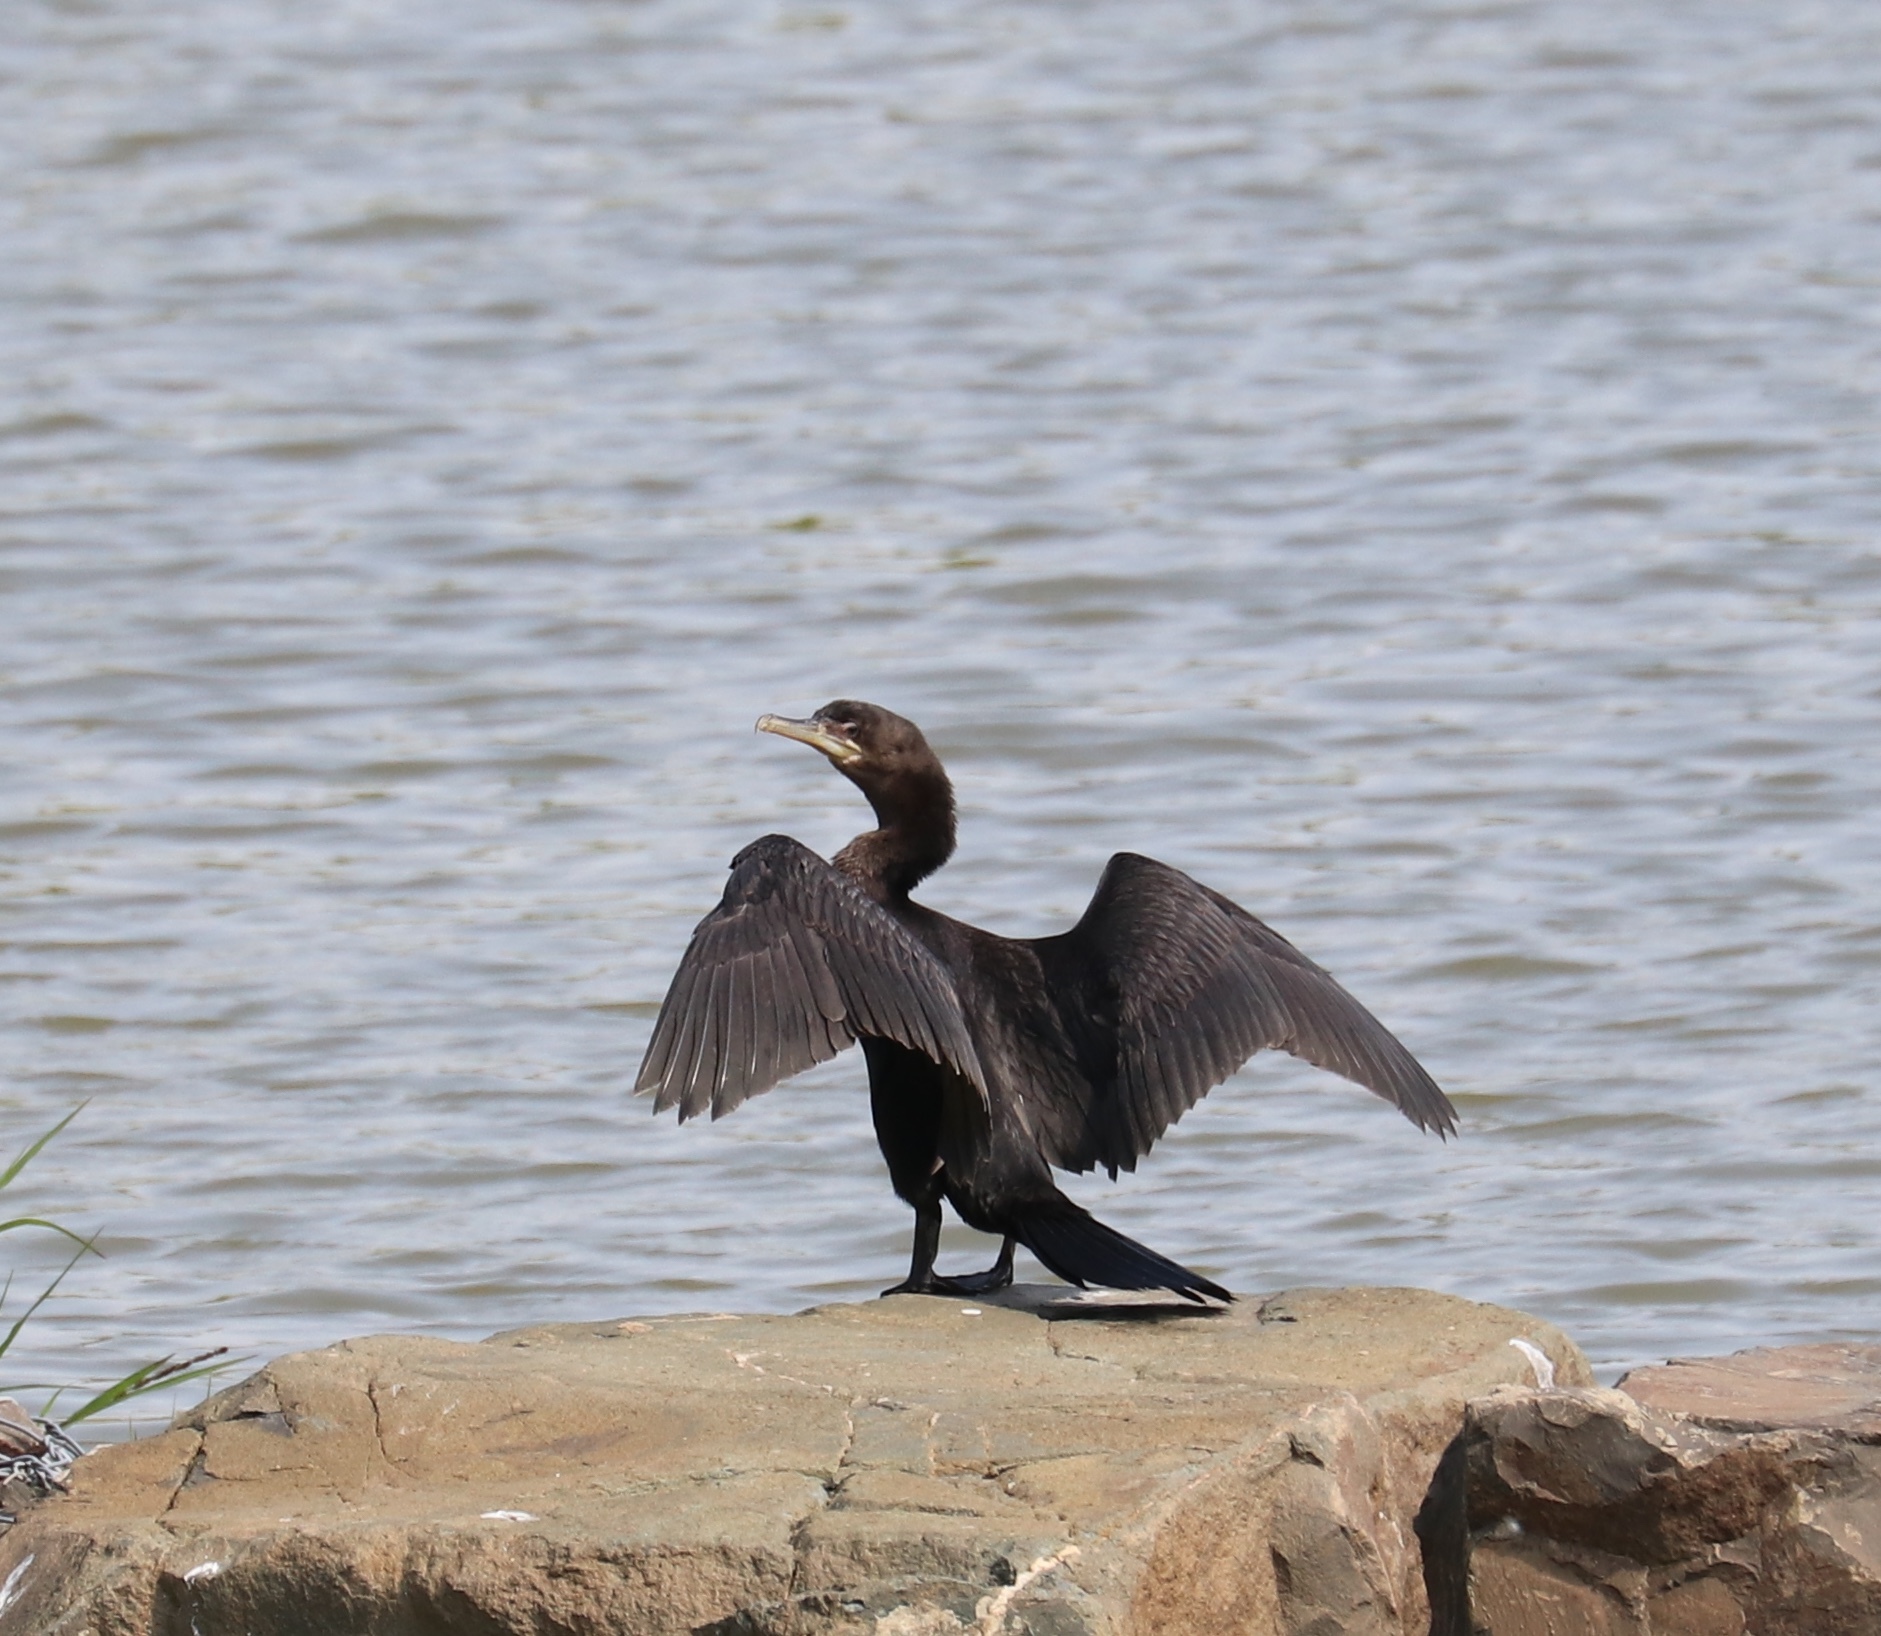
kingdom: Animalia
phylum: Chordata
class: Aves
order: Suliformes
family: Phalacrocoracidae
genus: Phalacrocorax
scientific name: Phalacrocorax brasilianus
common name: Neotropic cormorant
